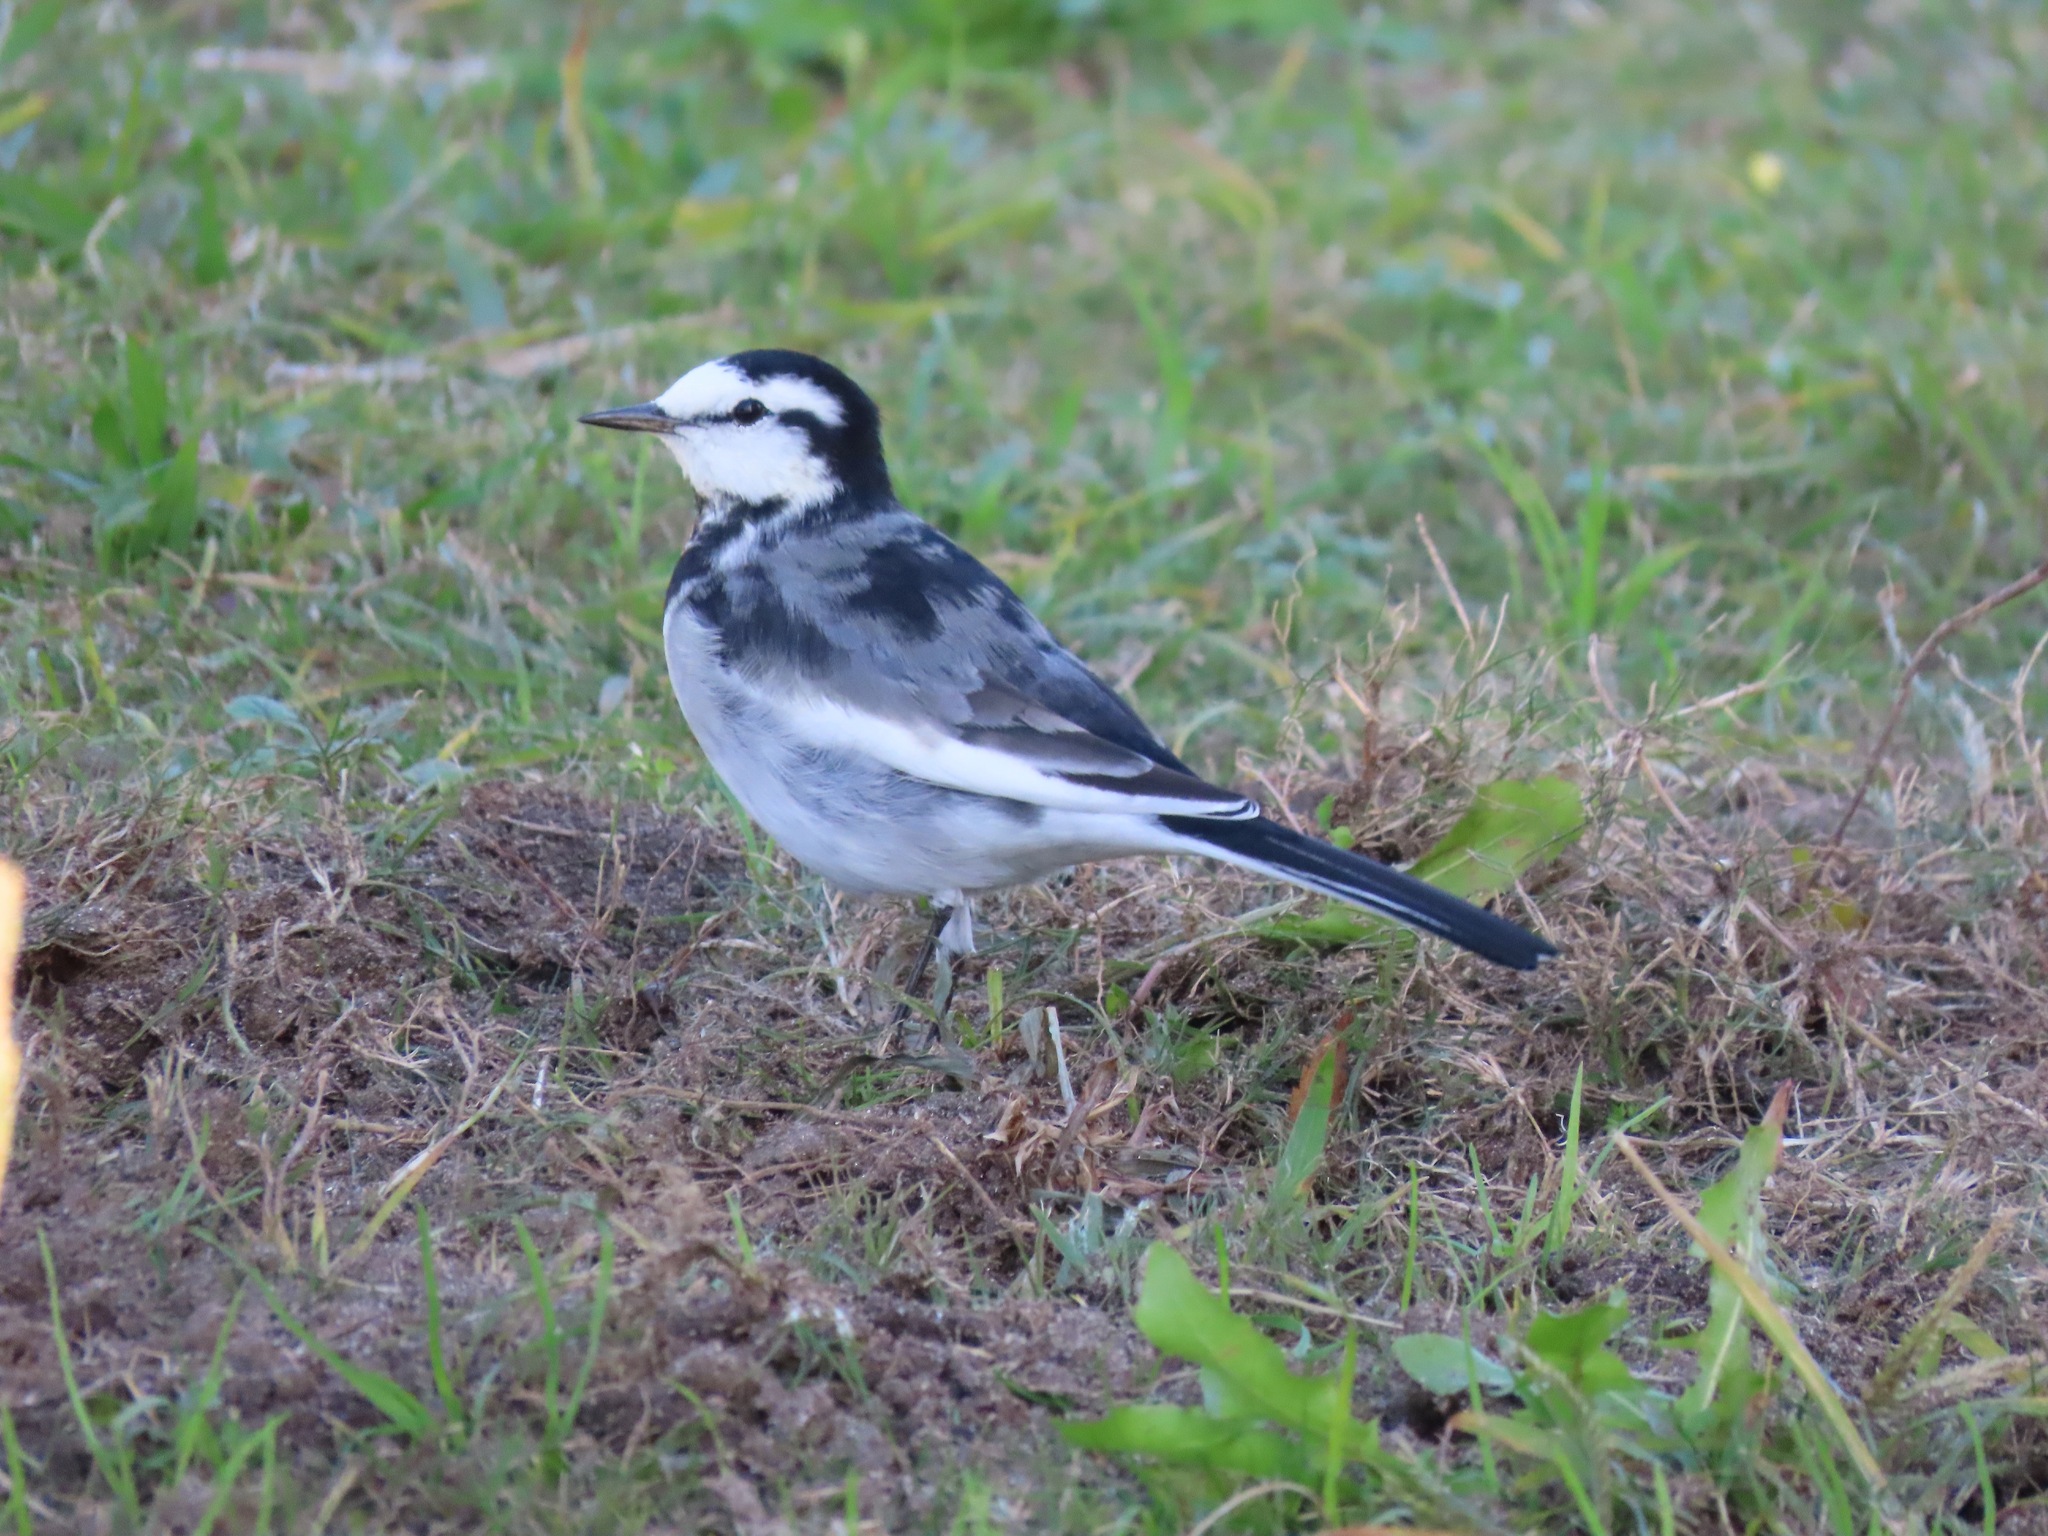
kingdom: Animalia
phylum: Chordata
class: Aves
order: Passeriformes
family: Motacillidae
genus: Motacilla
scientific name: Motacilla alba
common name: White wagtail
